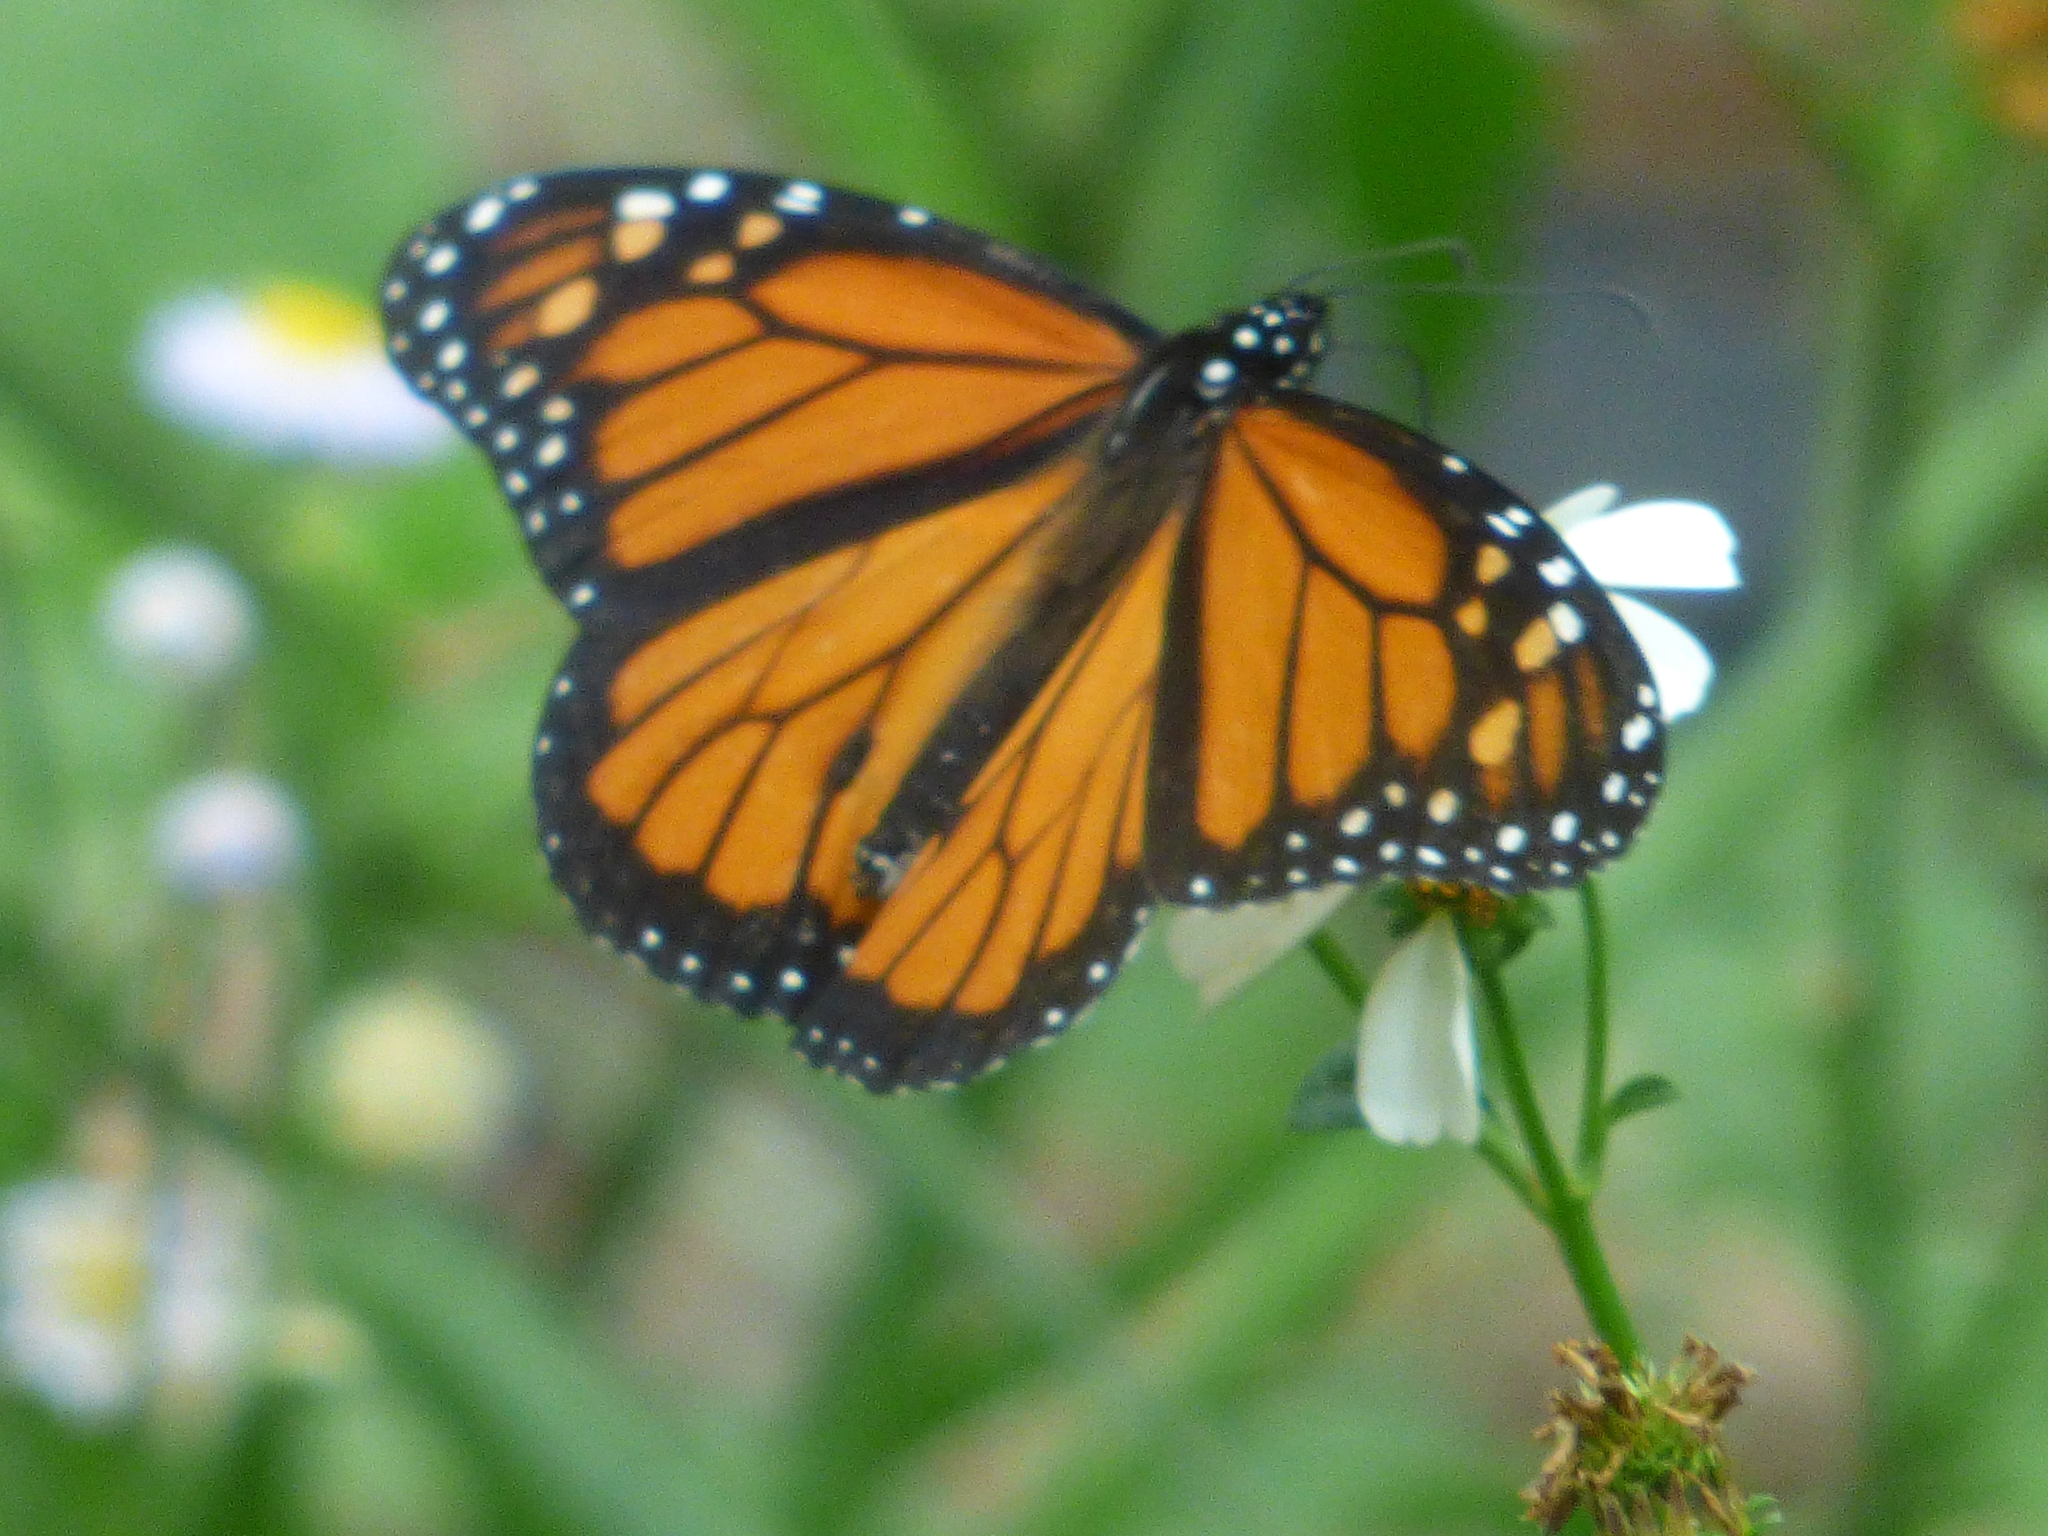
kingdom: Animalia
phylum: Arthropoda
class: Insecta
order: Lepidoptera
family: Nymphalidae
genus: Danaus
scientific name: Danaus plexippus
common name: Monarch
